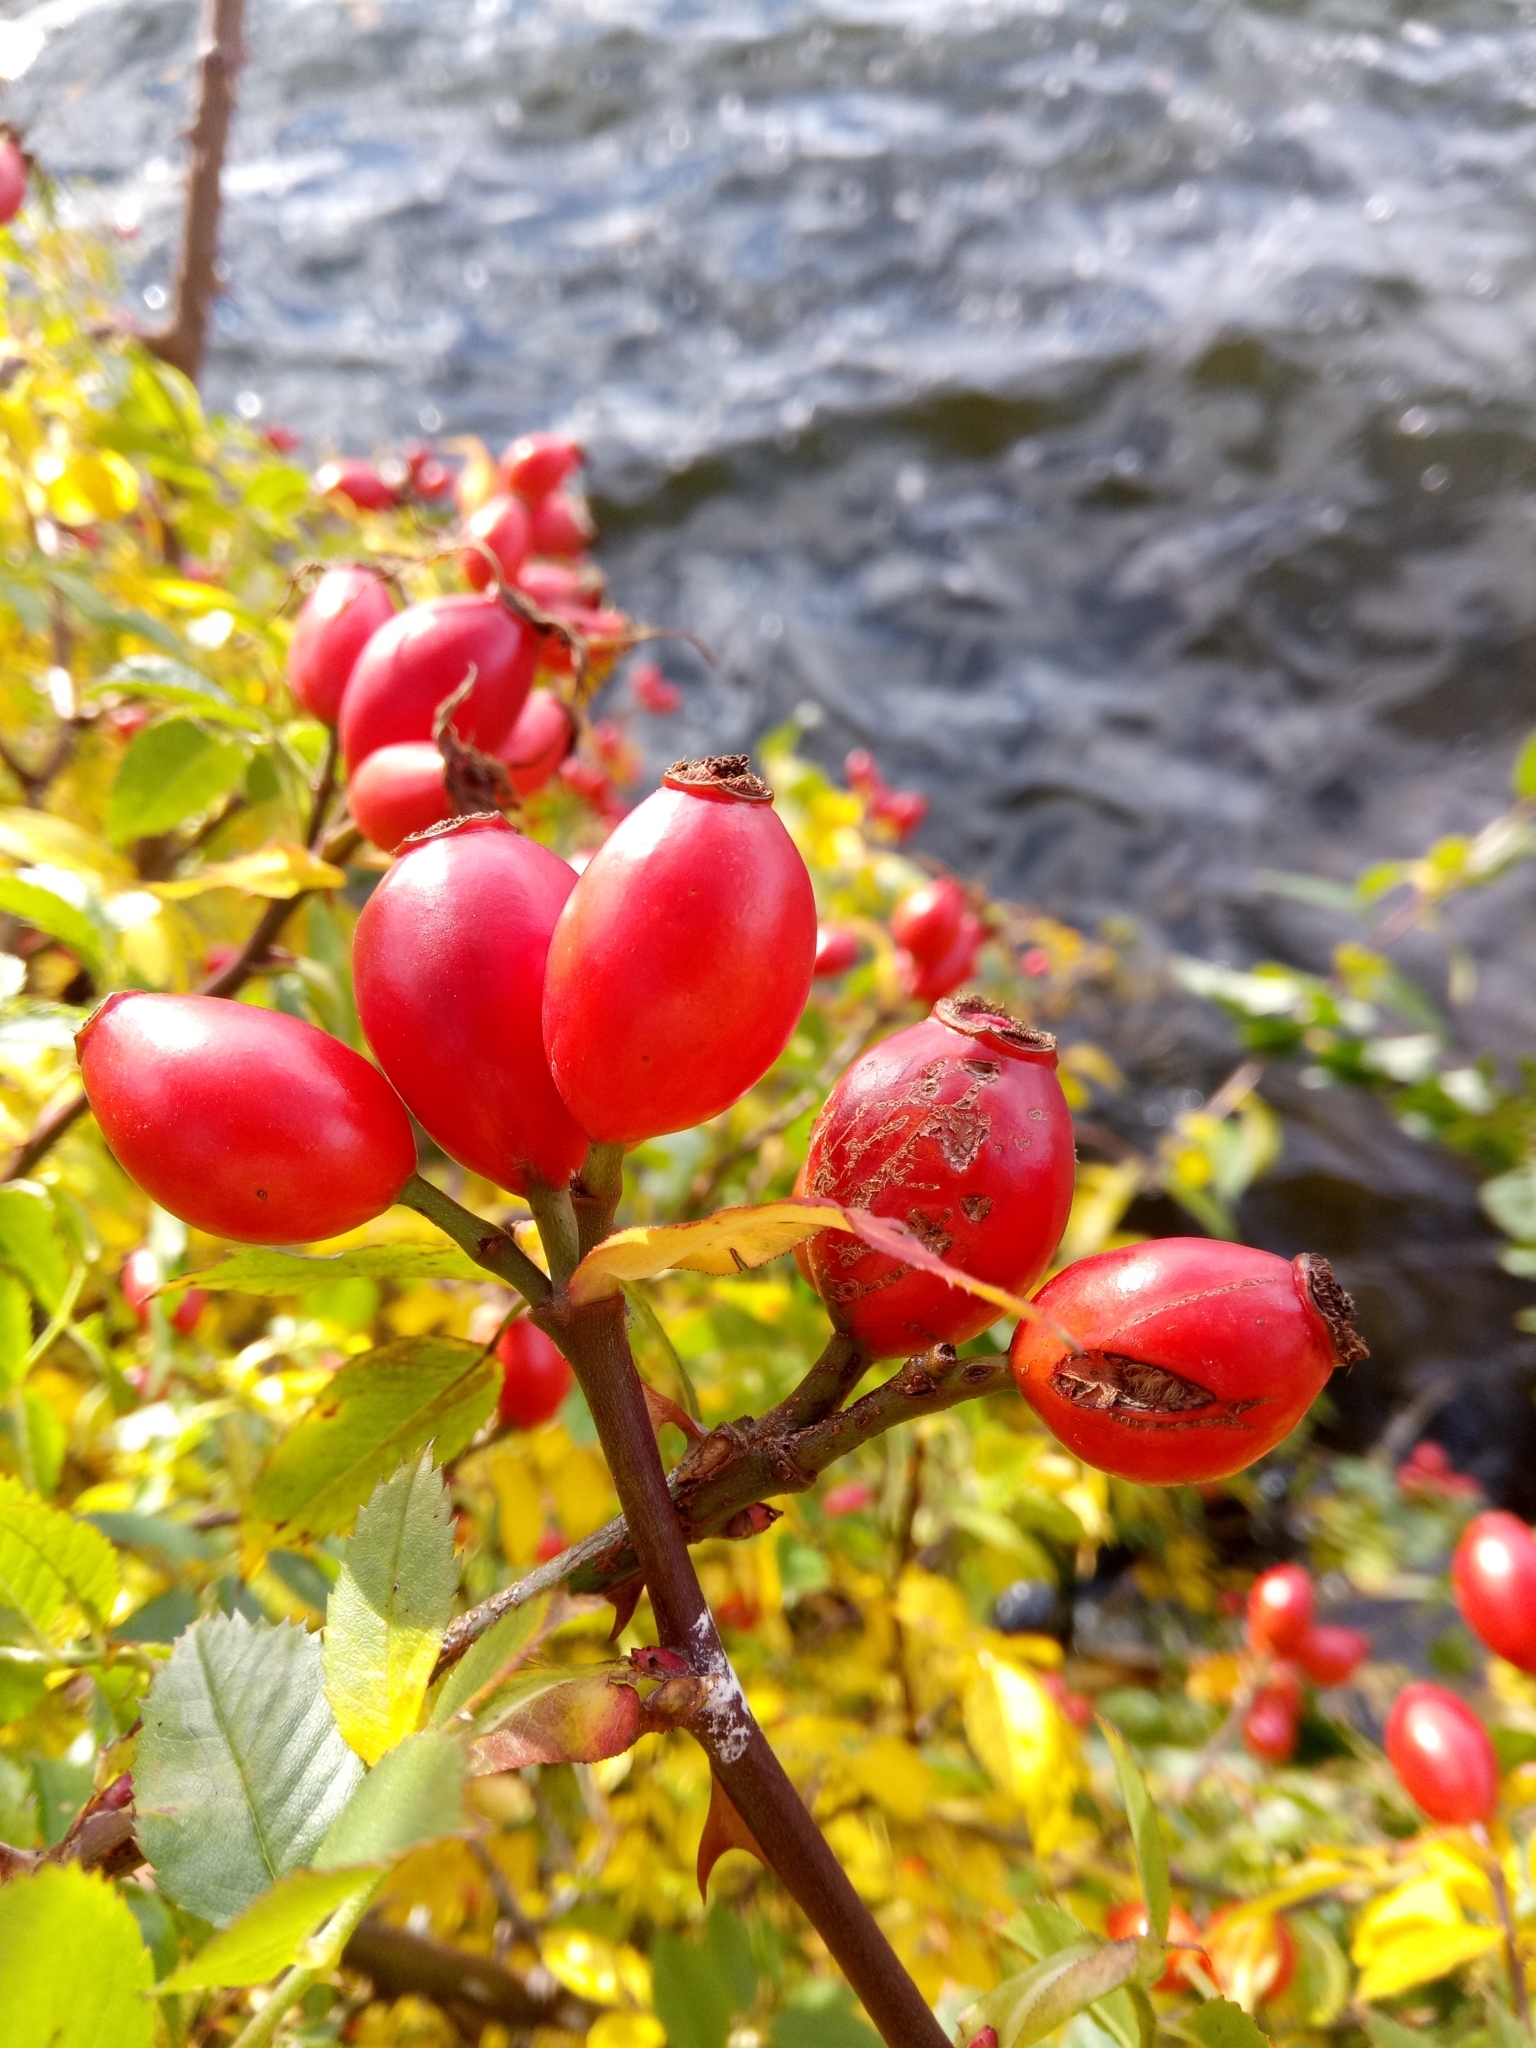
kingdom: Plantae
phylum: Tracheophyta
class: Magnoliopsida
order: Rosales
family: Rosaceae
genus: Rosa
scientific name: Rosa canina
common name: Dog rose
